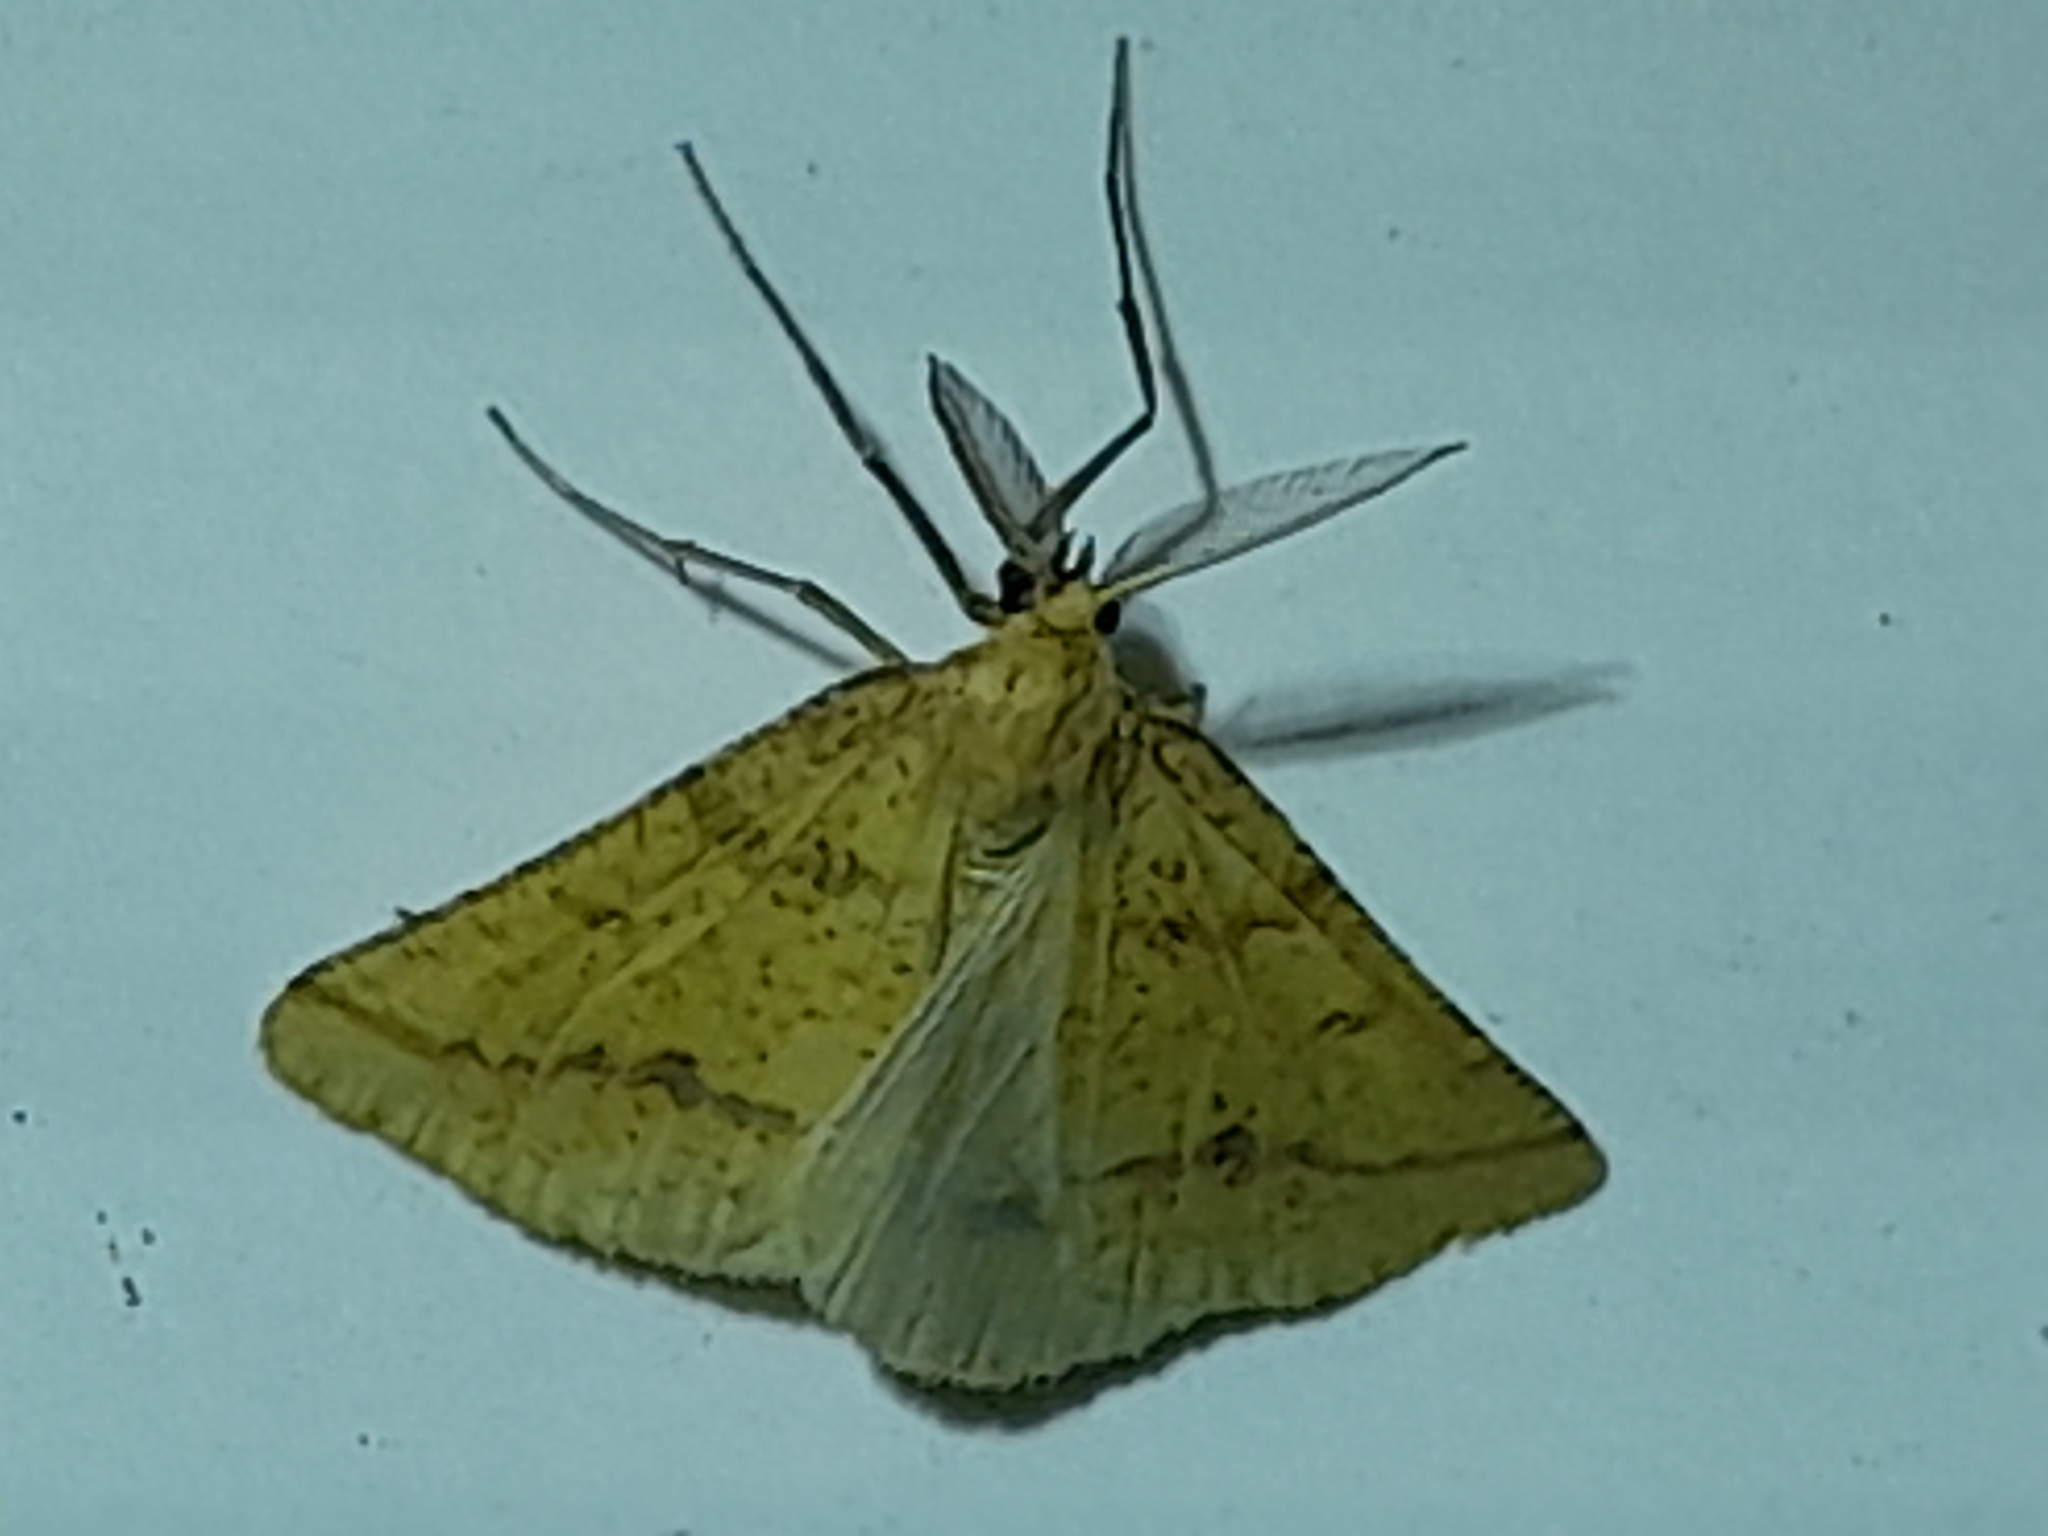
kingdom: Animalia
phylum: Arthropoda
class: Insecta
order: Lepidoptera
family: Geometridae
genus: Aspitates
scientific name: Aspitates ochrearia
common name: Yellow belle
